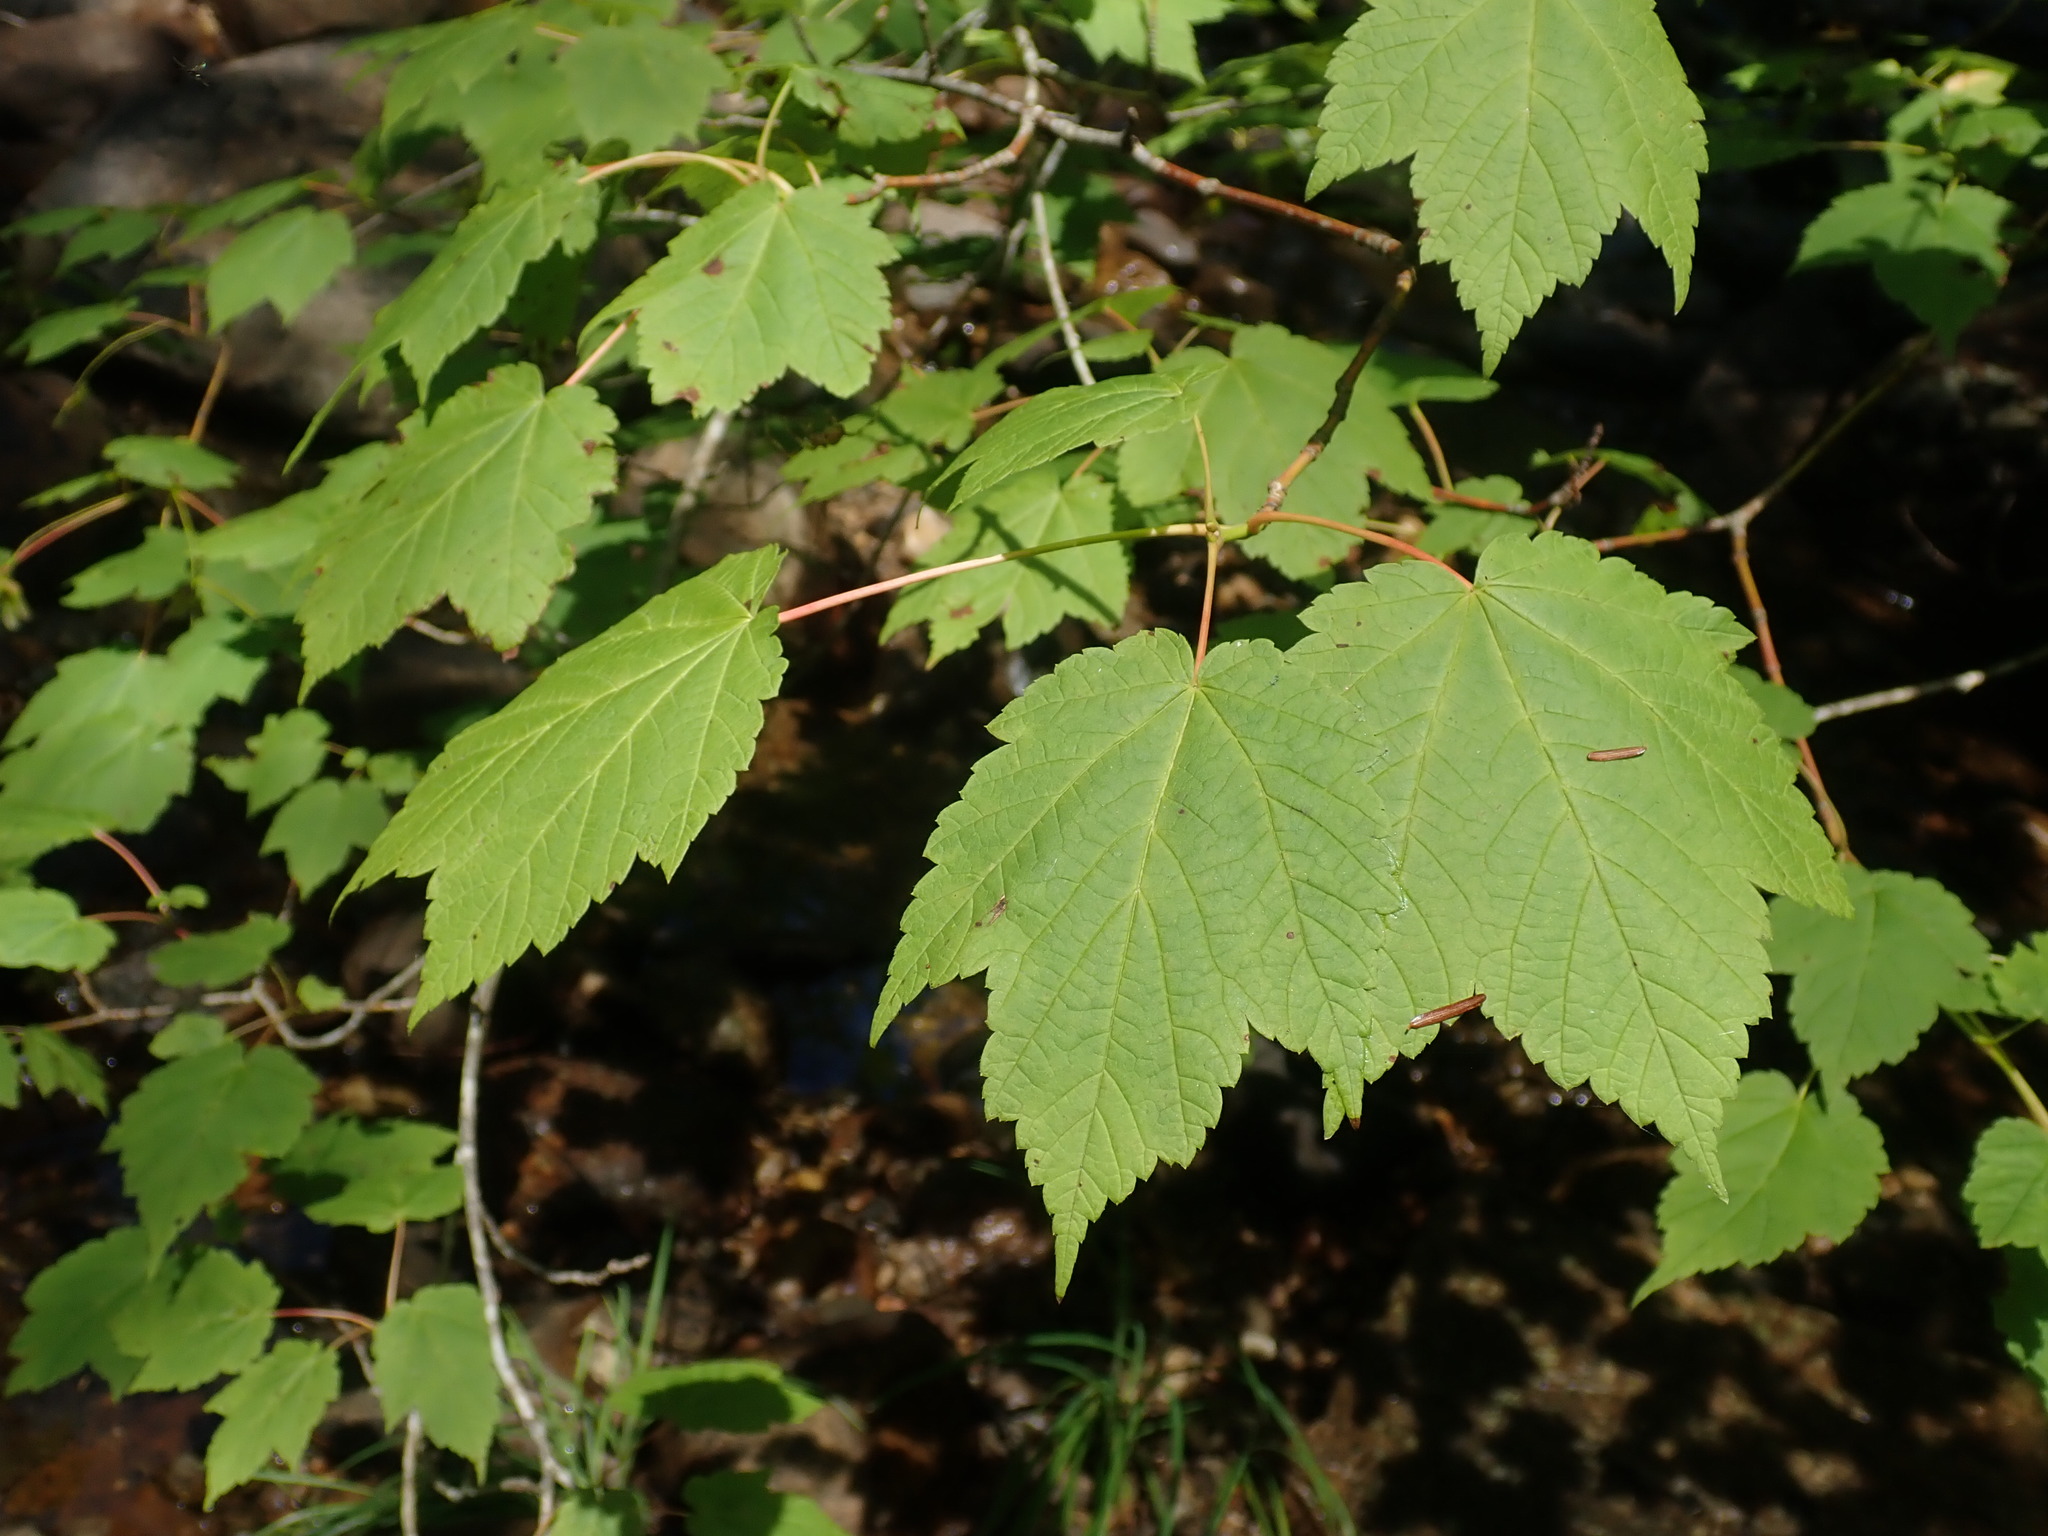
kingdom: Plantae
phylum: Tracheophyta
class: Magnoliopsida
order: Sapindales
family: Sapindaceae
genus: Acer
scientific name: Acer spicatum
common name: Mountain maple
